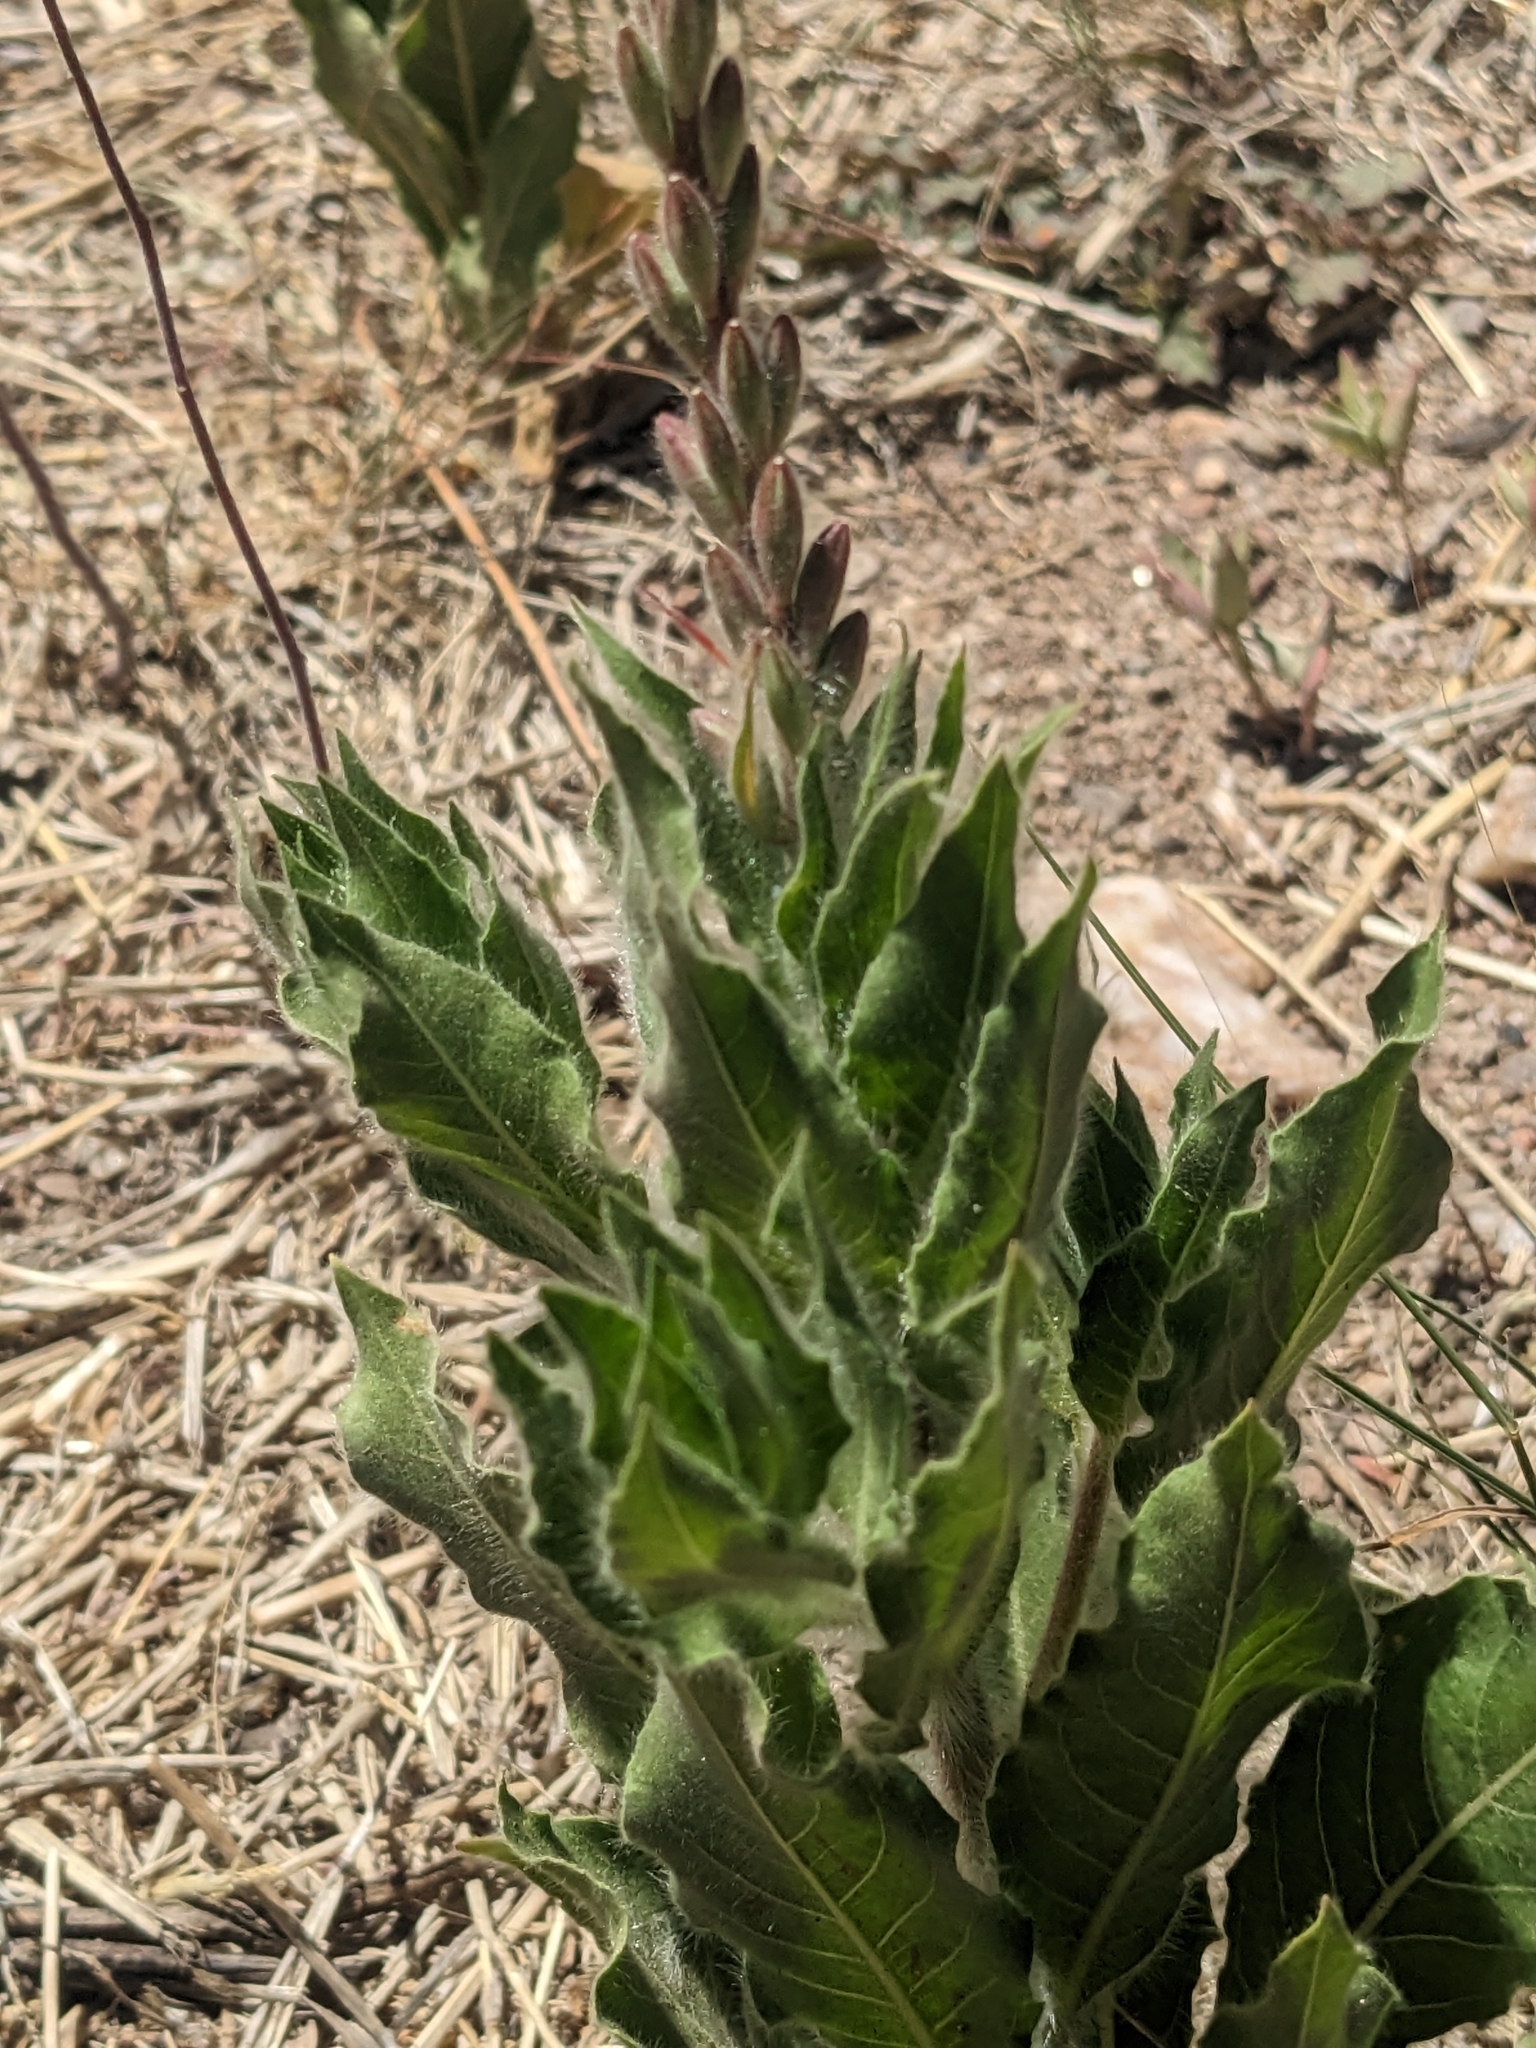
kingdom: Plantae
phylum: Tracheophyta
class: Magnoliopsida
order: Myrtales
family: Onagraceae
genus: Oenothera
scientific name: Oenothera curtiflora
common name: Velvetweed
